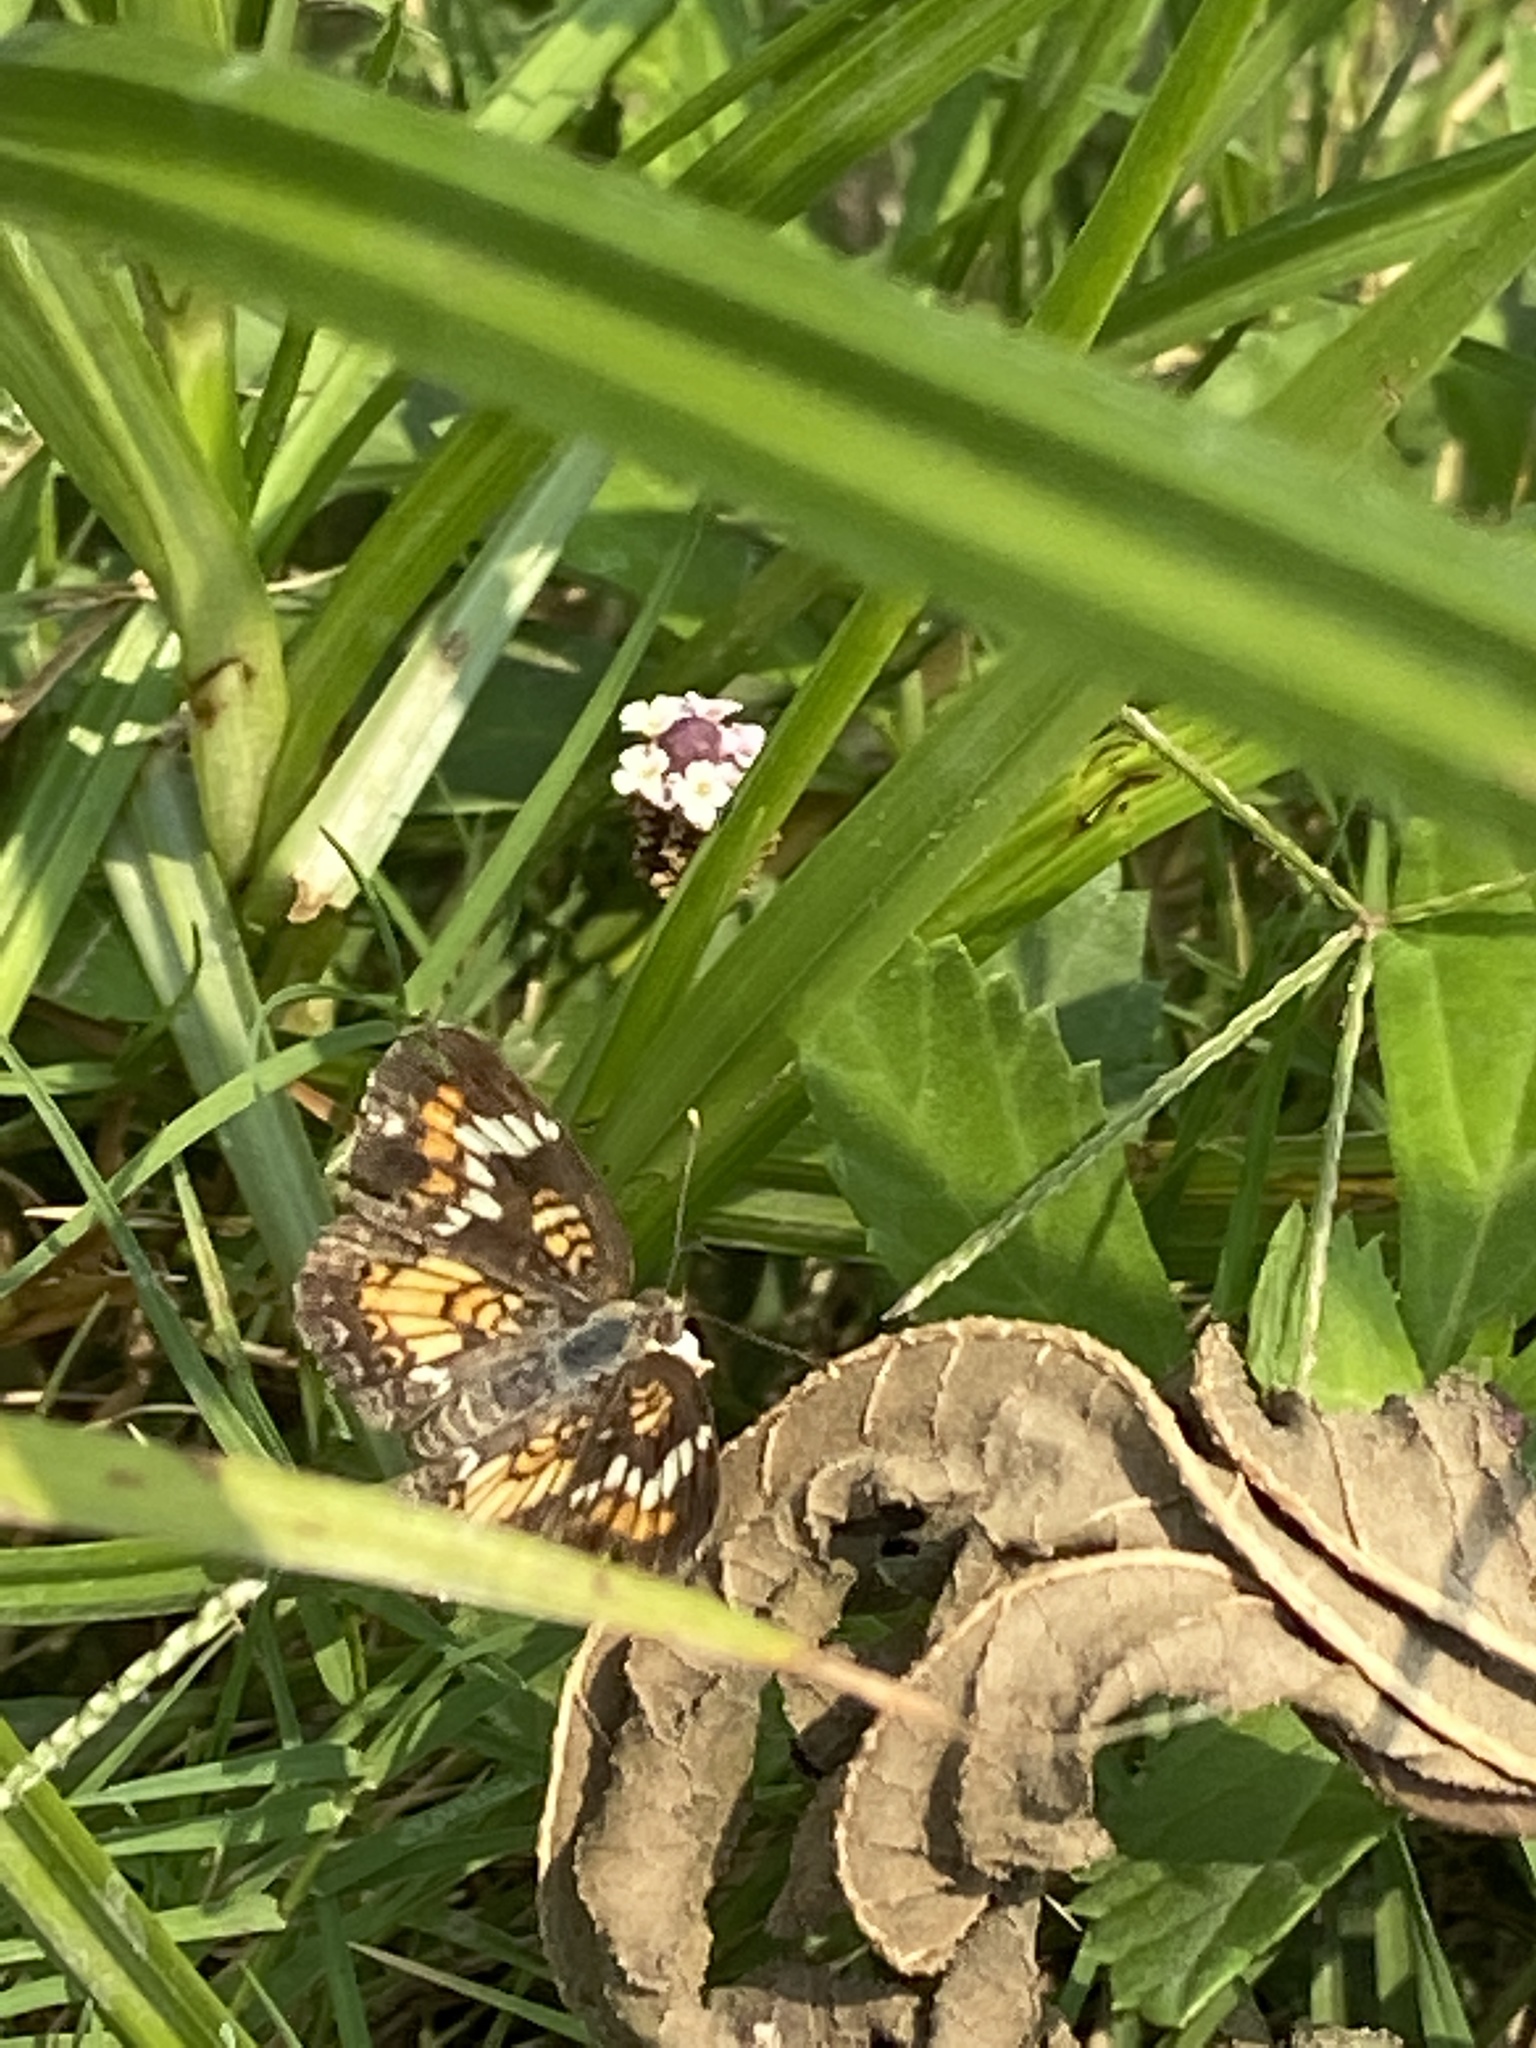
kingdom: Animalia
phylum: Arthropoda
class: Insecta
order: Lepidoptera
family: Nymphalidae
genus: Phyciodes
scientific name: Phyciodes phaon
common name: Phaon crescent
